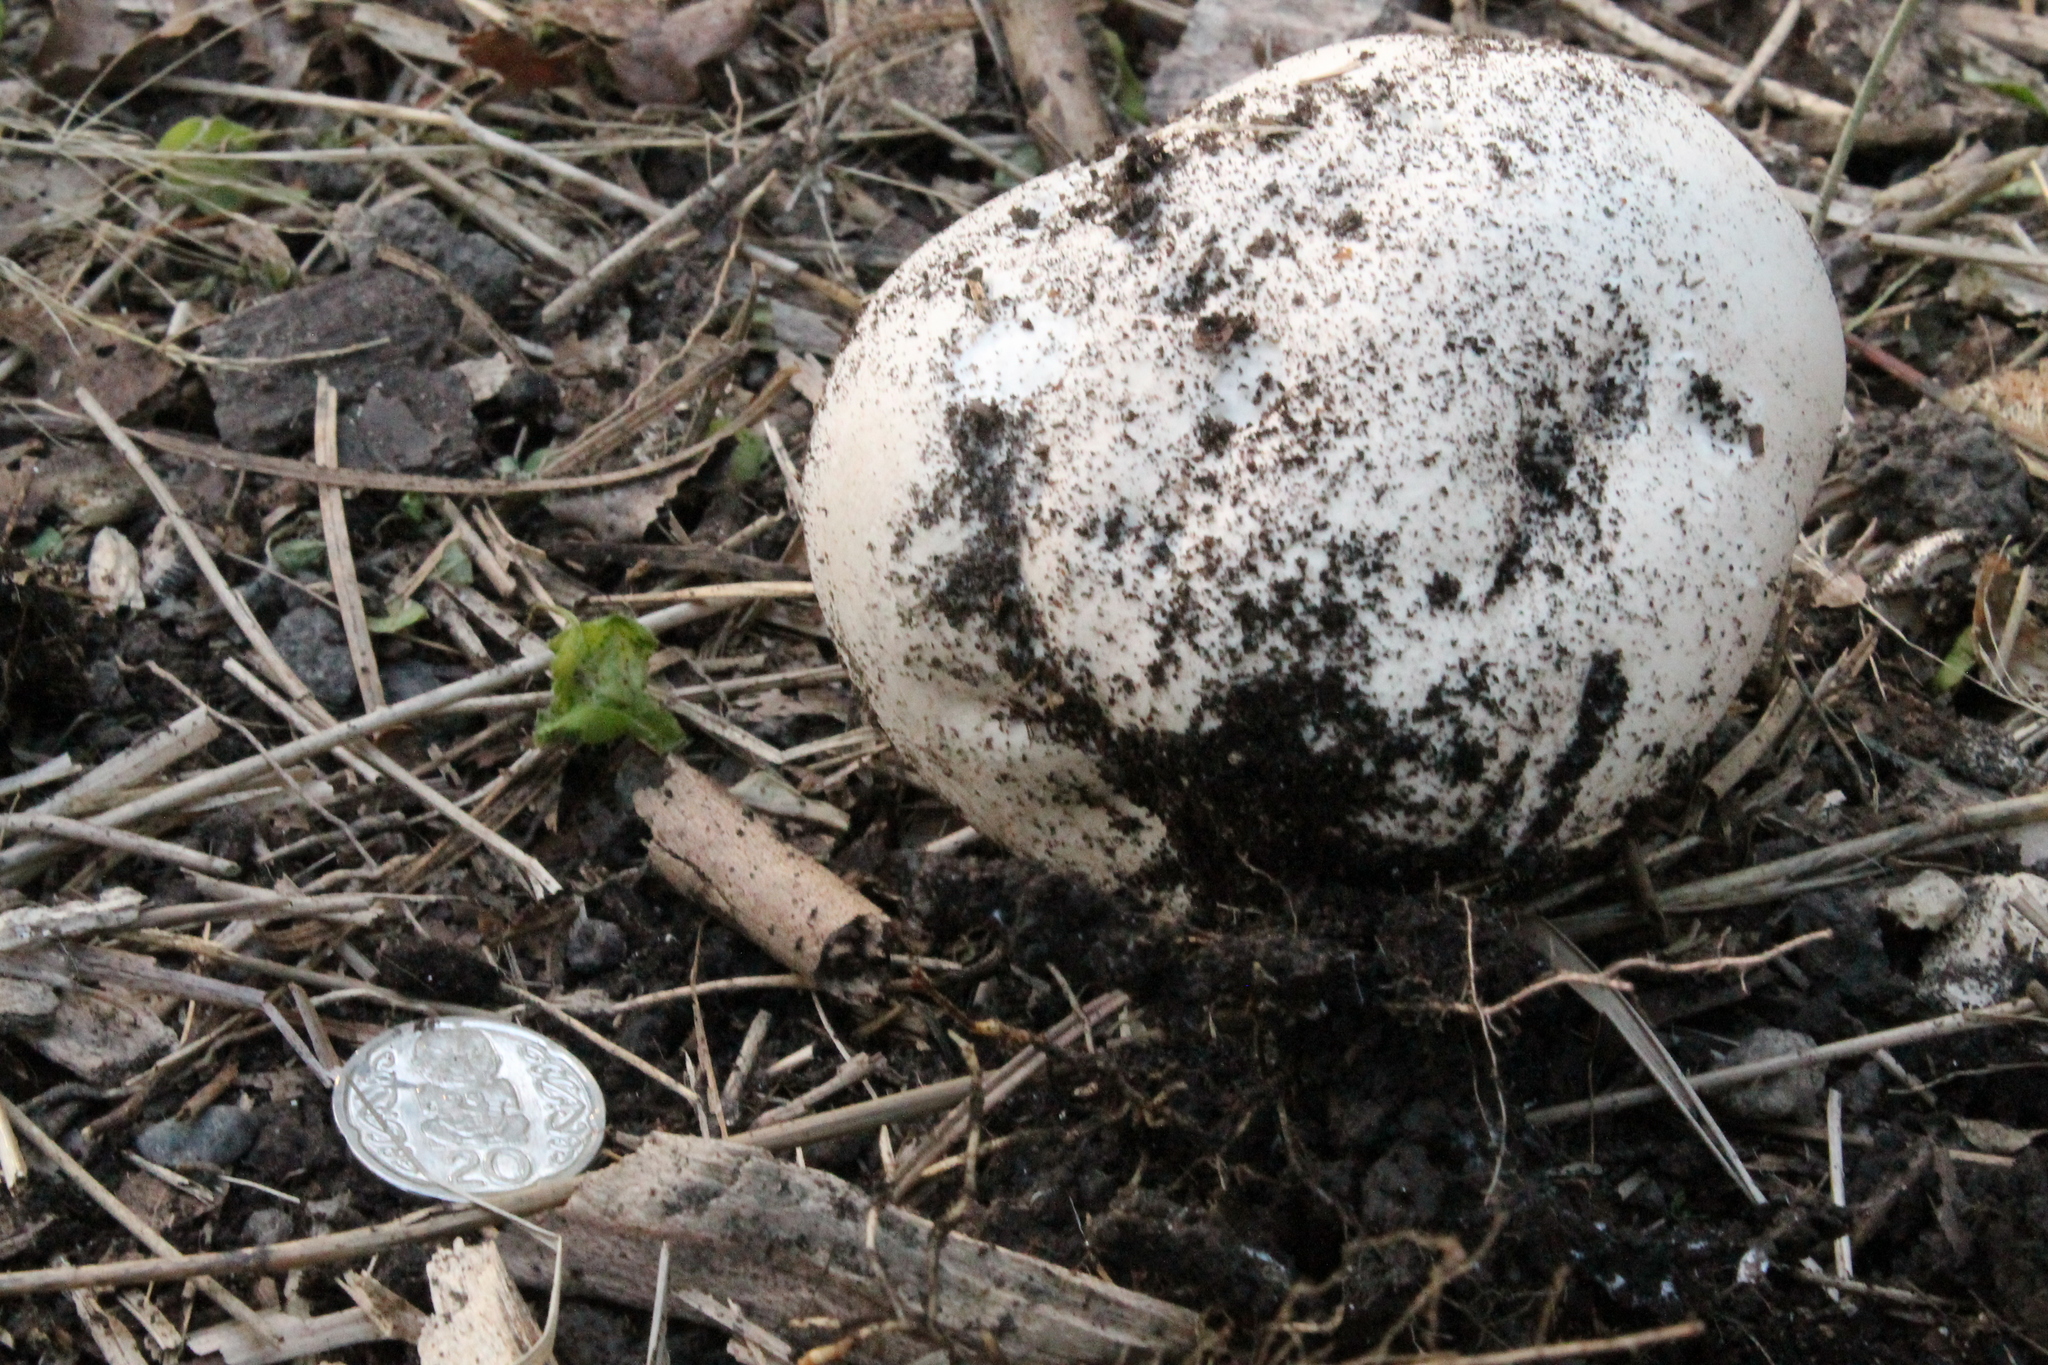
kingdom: Fungi
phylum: Basidiomycota
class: Agaricomycetes
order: Agaricales
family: Lycoperdaceae
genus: Calvatia
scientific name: Calvatia gigantea
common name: Giant puffball
